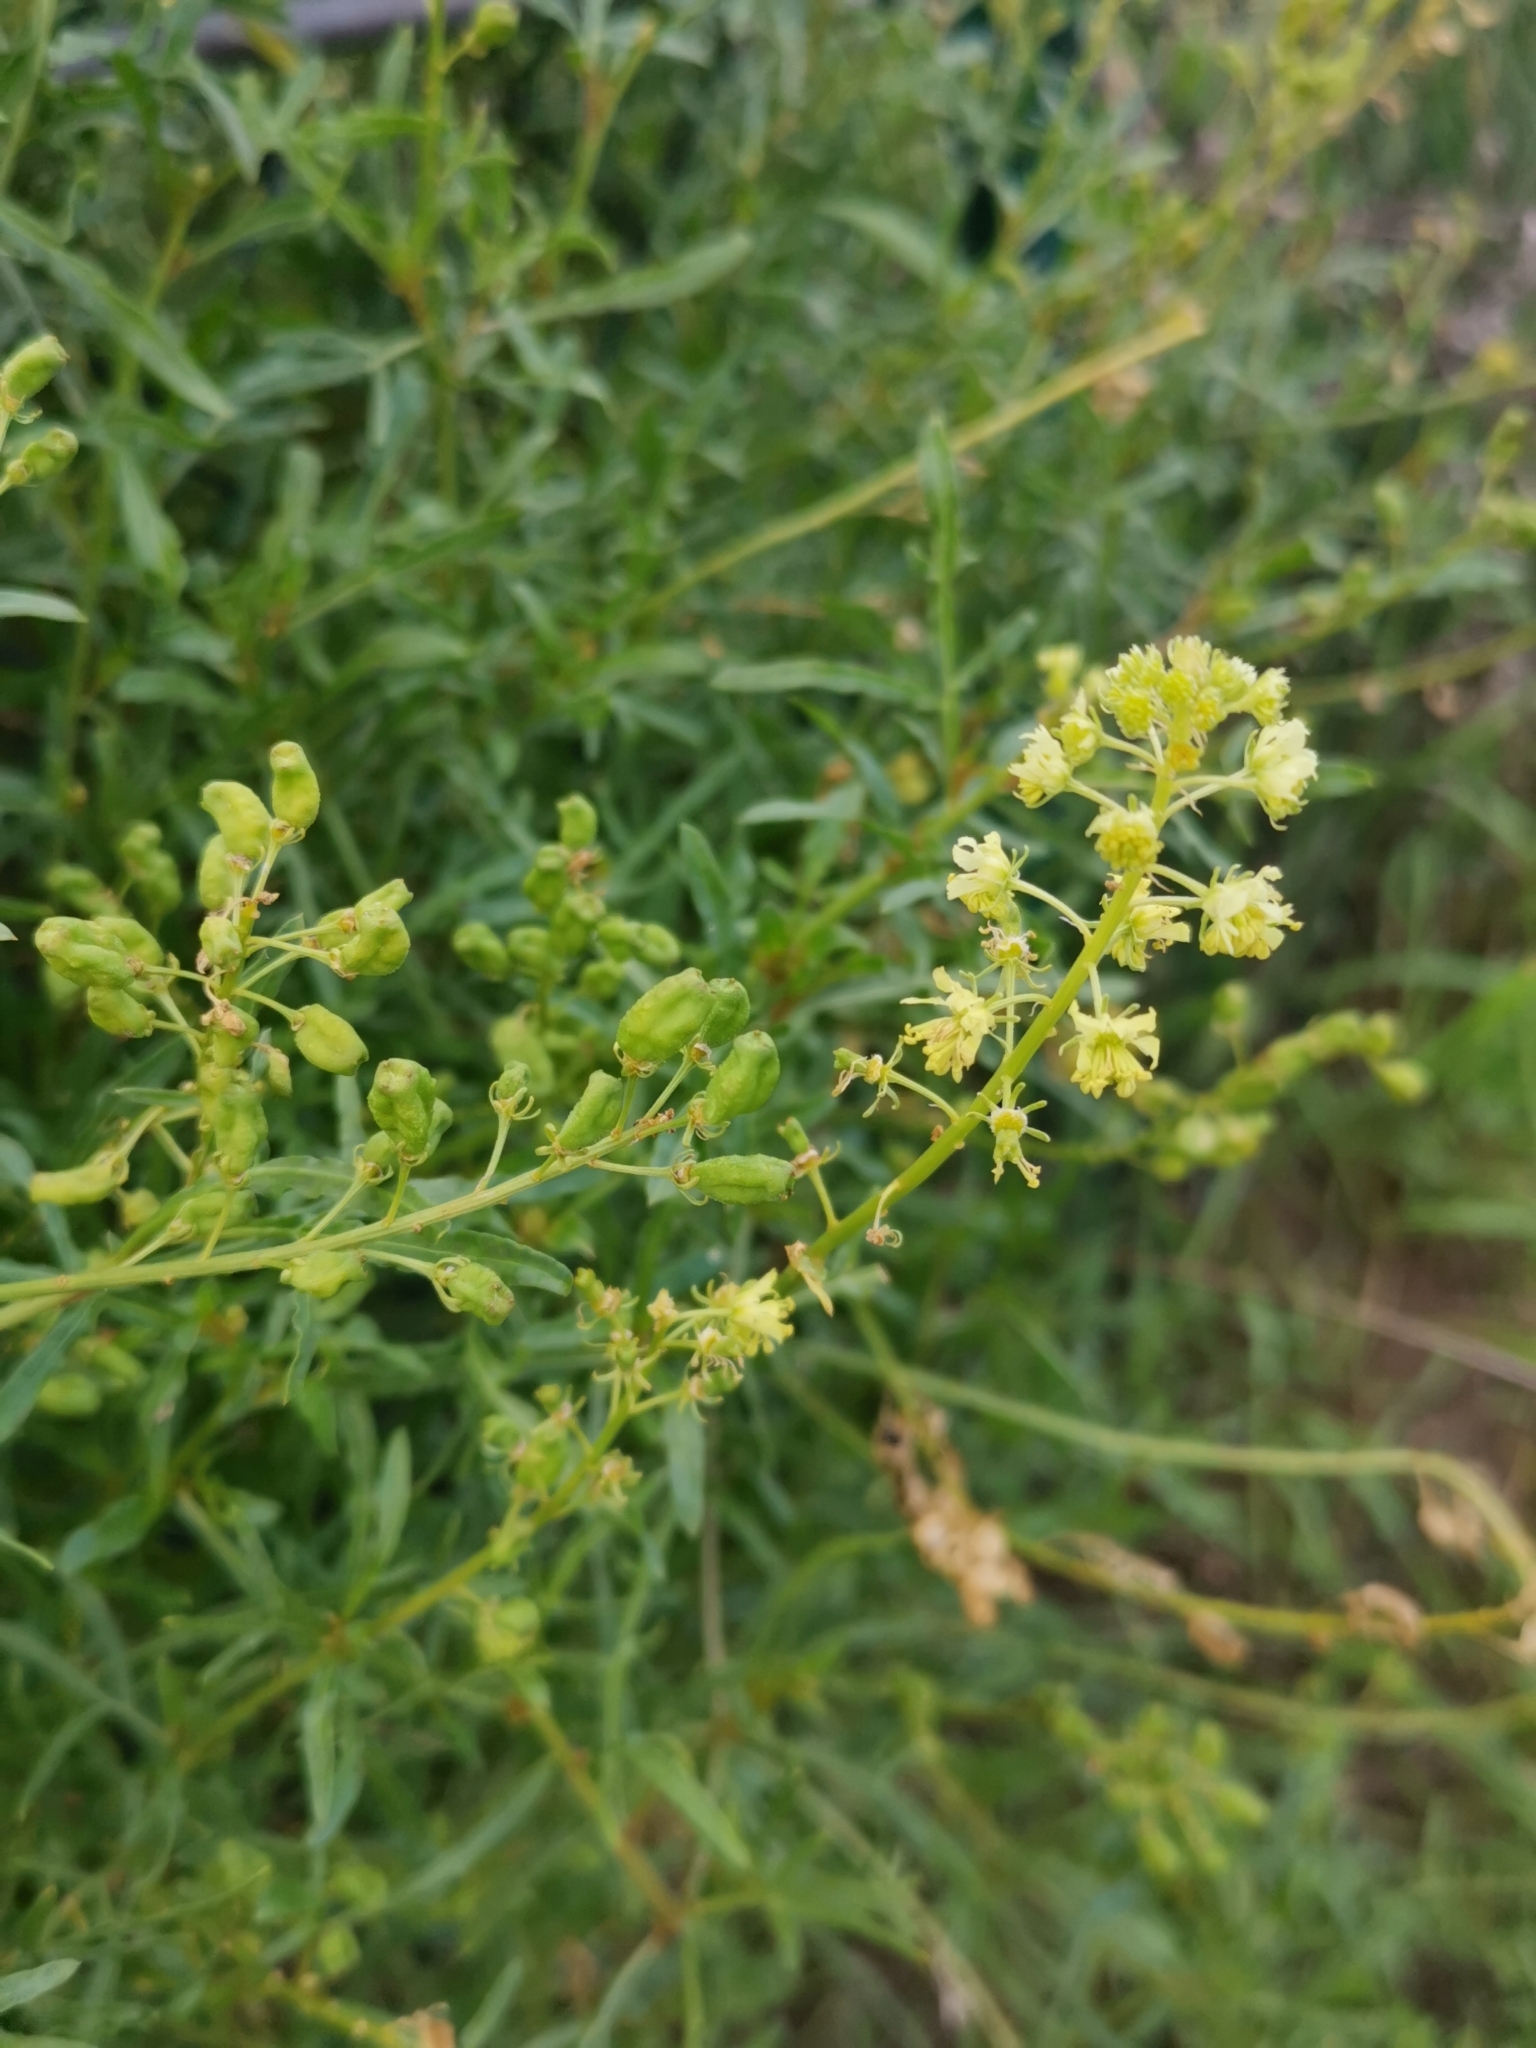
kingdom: Plantae
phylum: Tracheophyta
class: Magnoliopsida
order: Brassicales
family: Resedaceae
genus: Reseda
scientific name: Reseda lutea
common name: Wild mignonette
